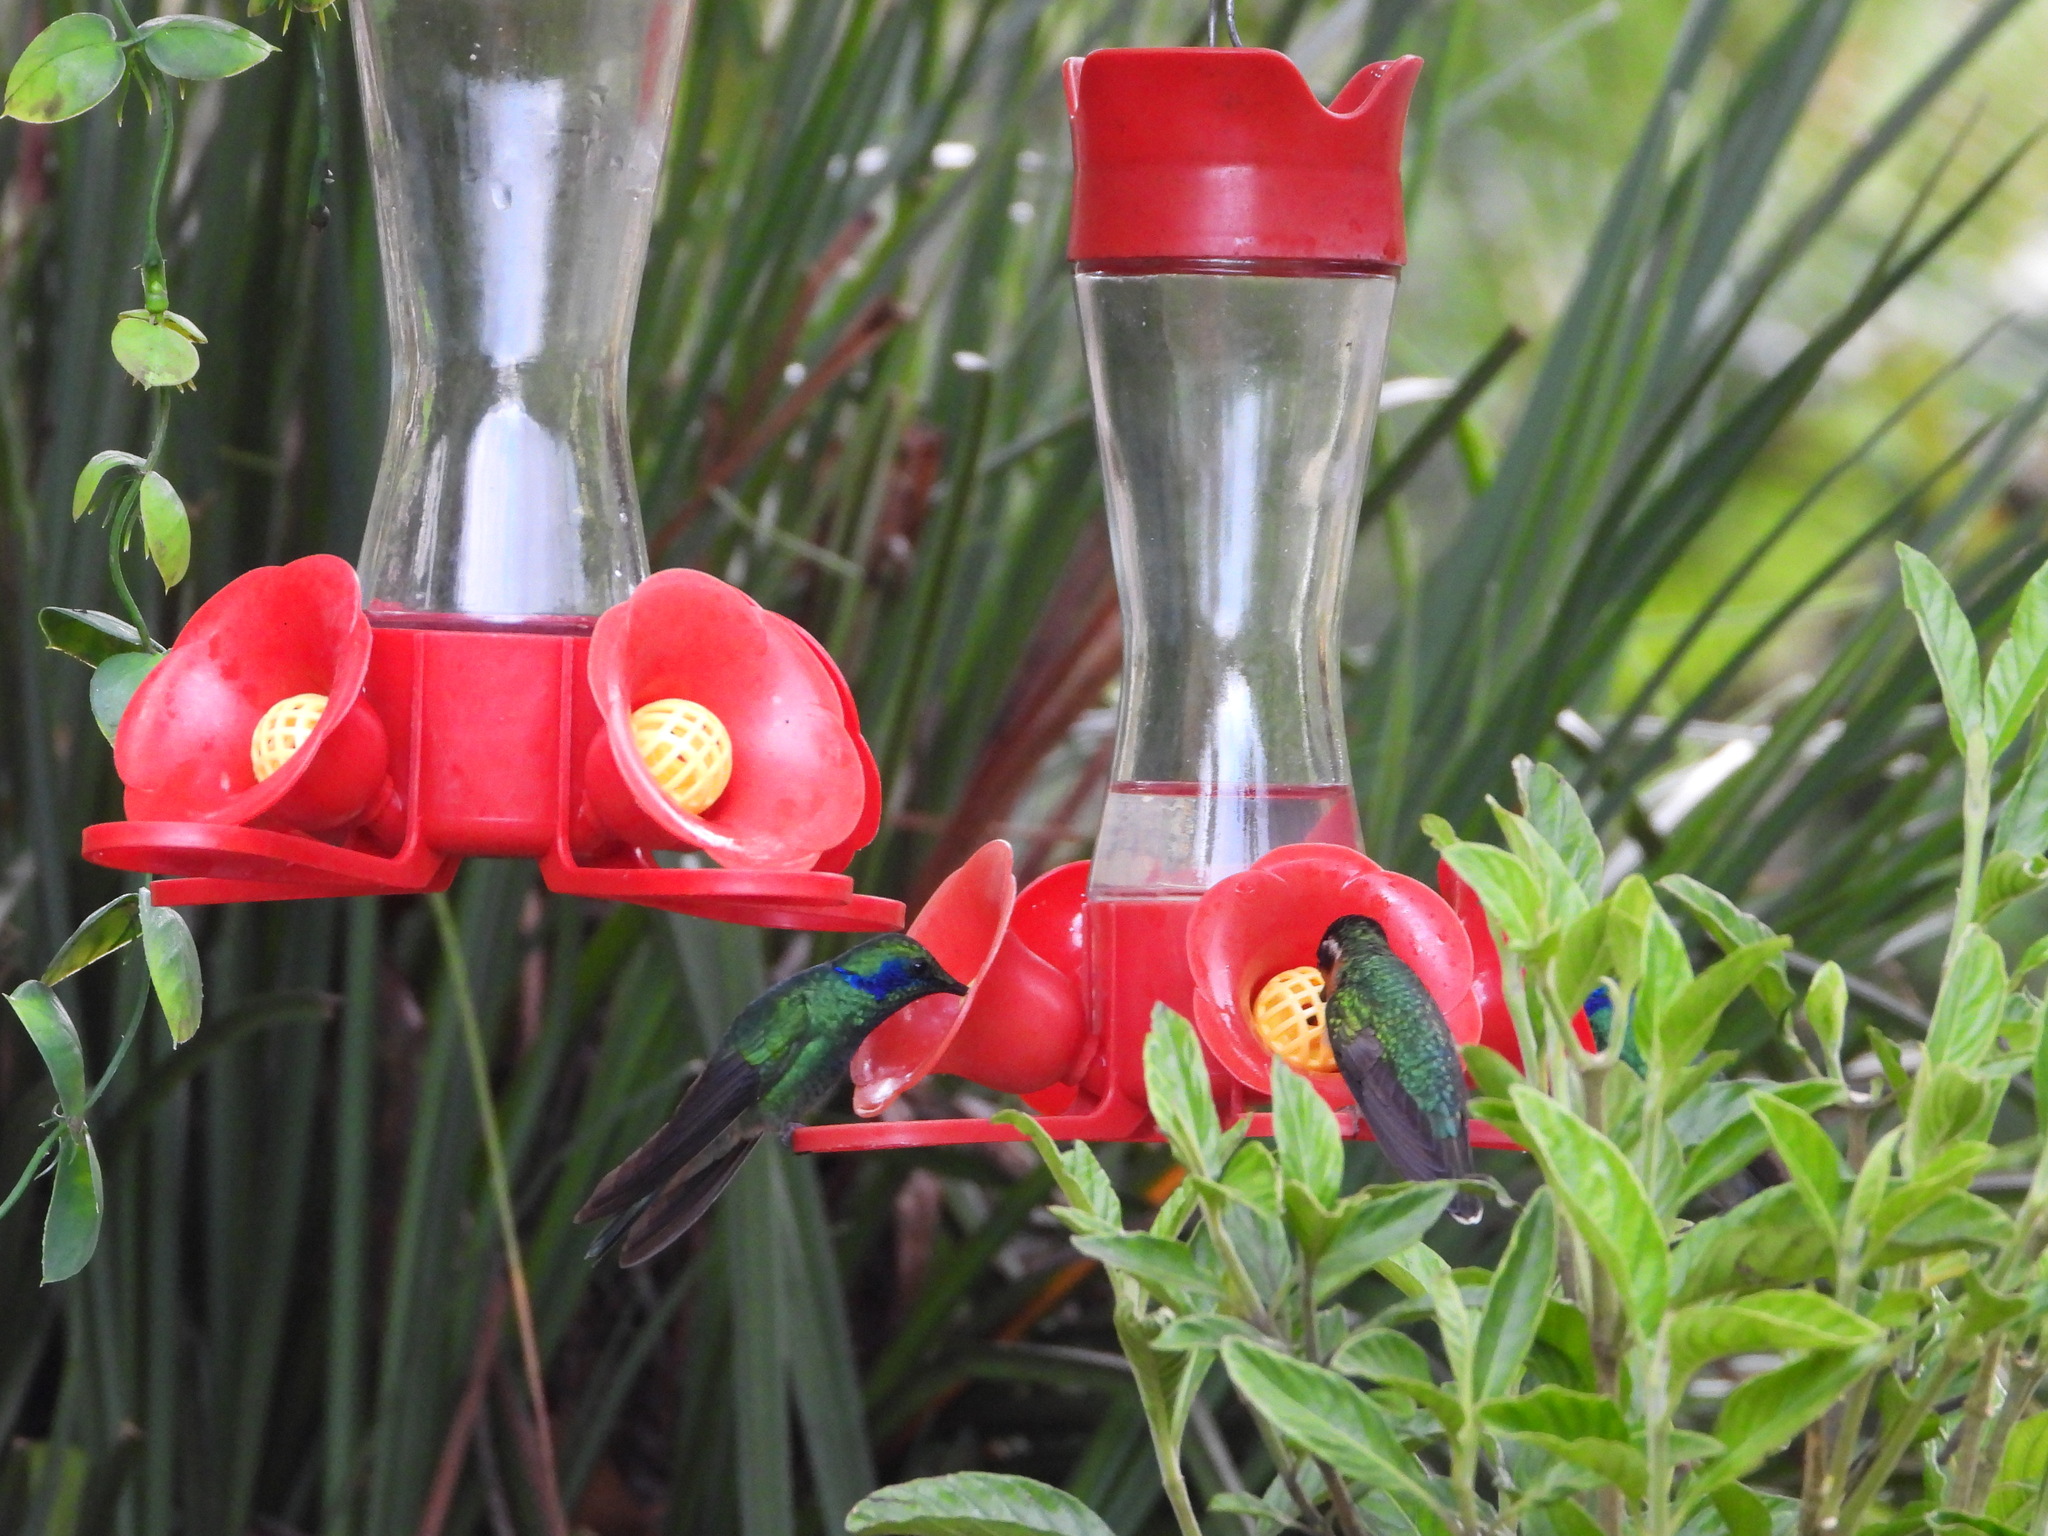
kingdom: Animalia
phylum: Chordata
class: Aves
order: Apodiformes
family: Trochilidae
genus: Colibri
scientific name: Colibri cyanotus
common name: Lesser violetear
